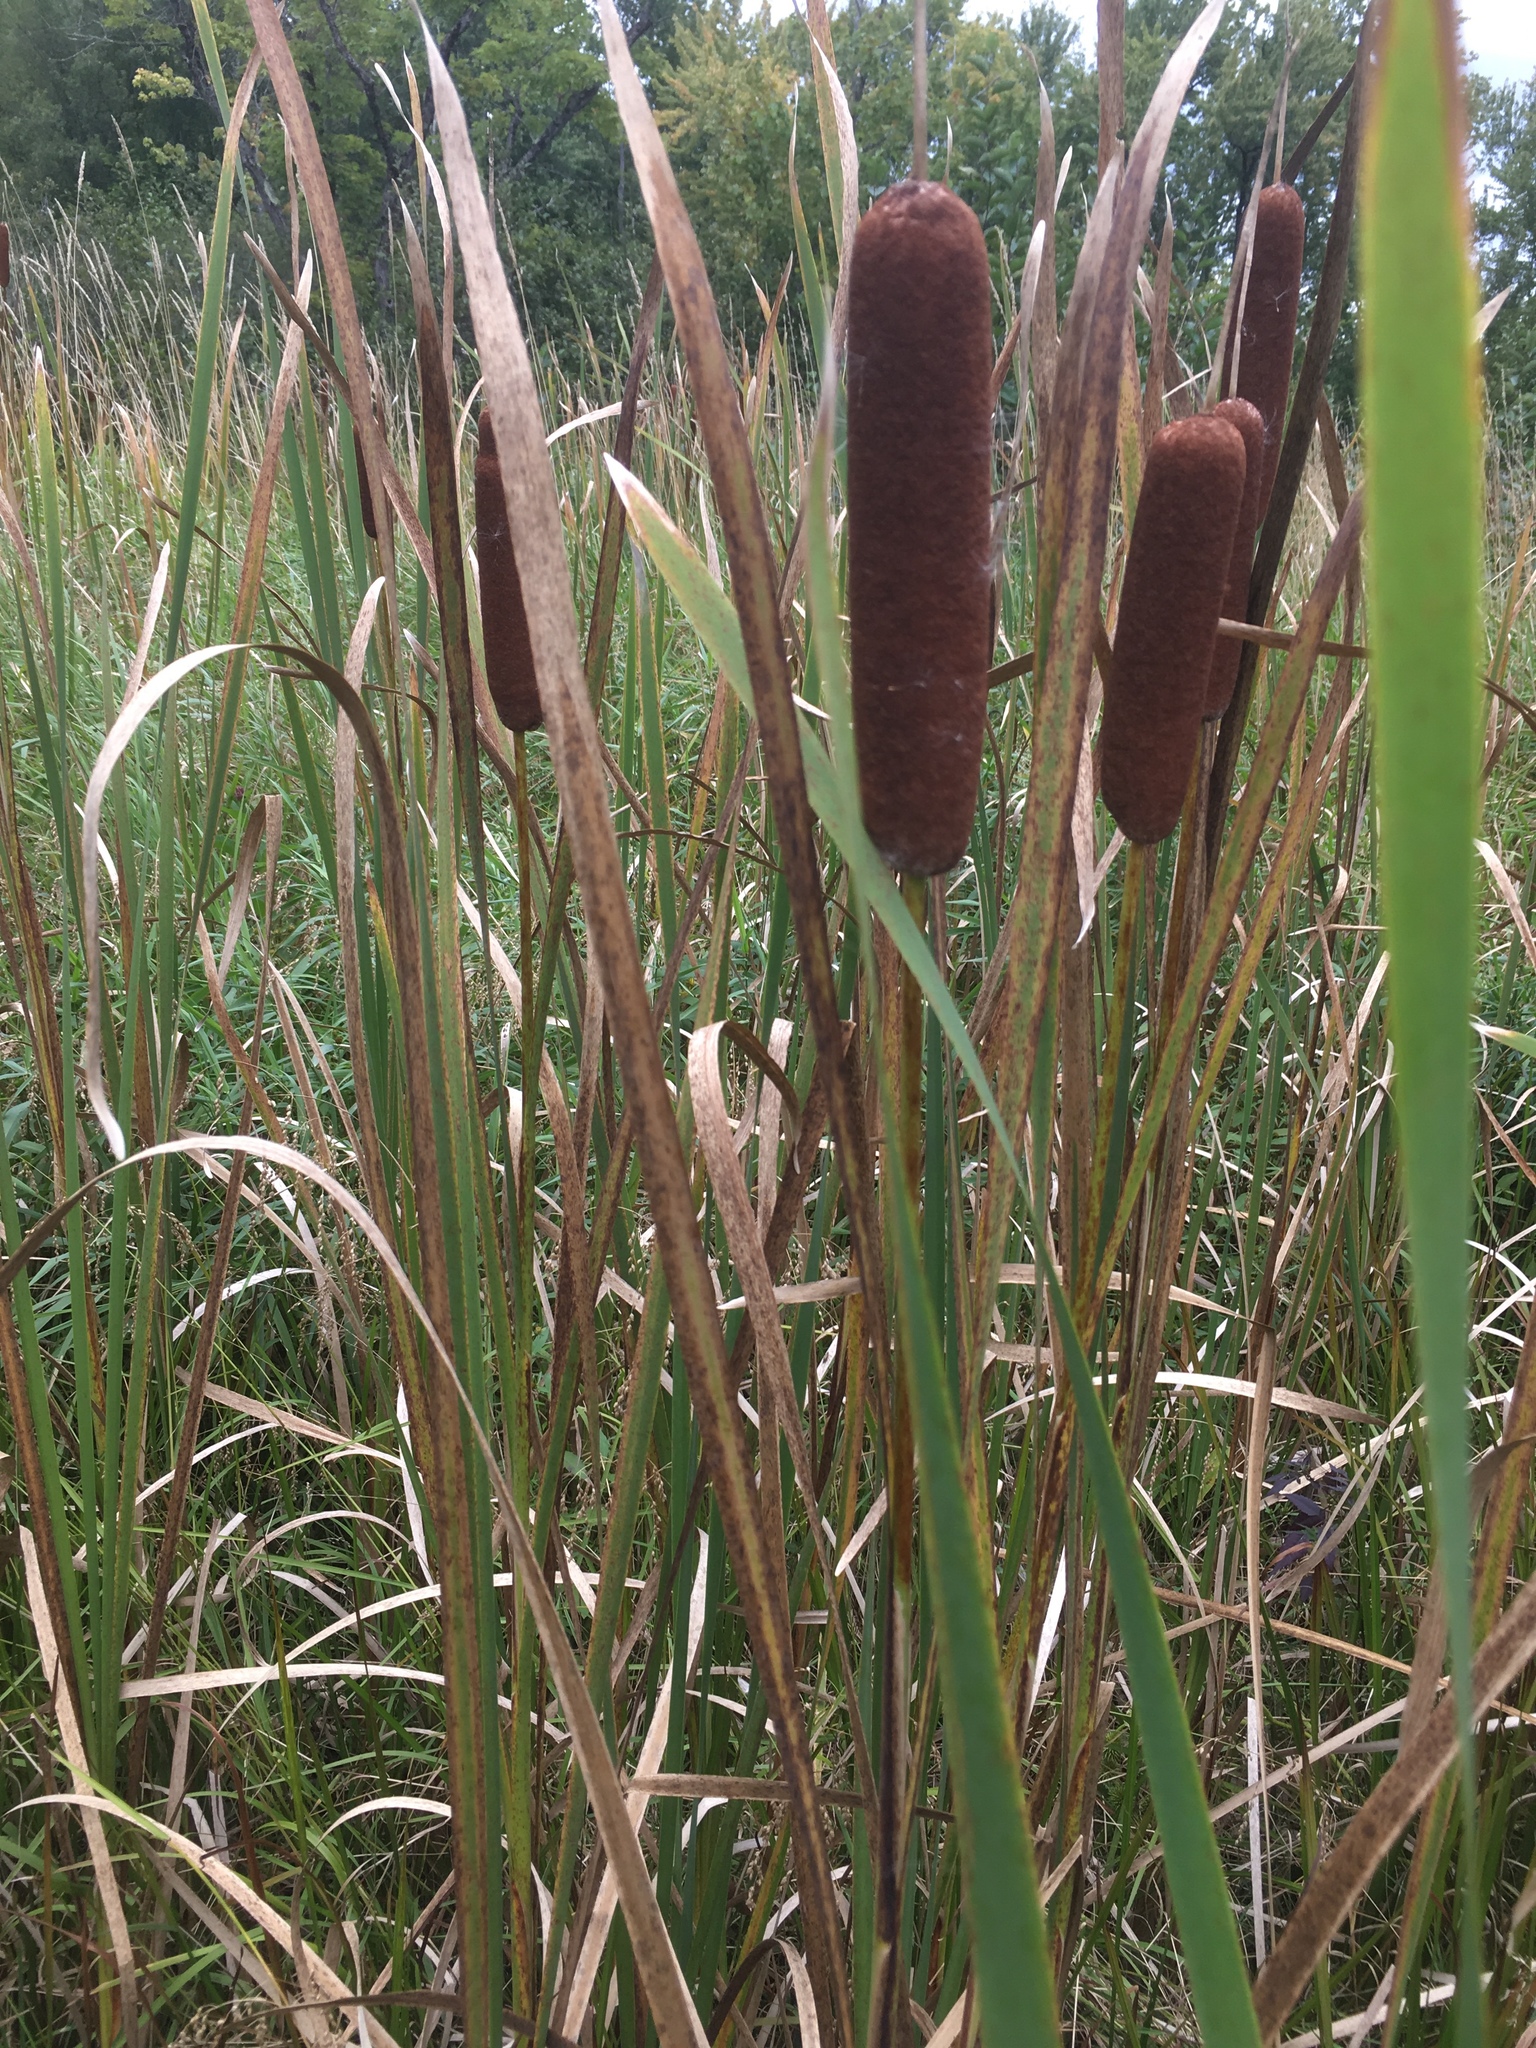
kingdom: Plantae
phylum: Tracheophyta
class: Liliopsida
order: Poales
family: Typhaceae
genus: Typha
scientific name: Typha latifolia
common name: Broadleaf cattail
